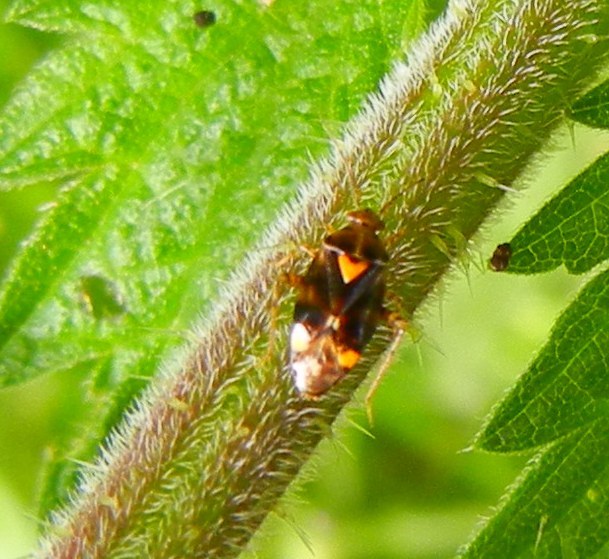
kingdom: Animalia
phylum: Arthropoda
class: Insecta
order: Hemiptera
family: Miridae
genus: Liocoris
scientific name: Liocoris tripustulatus
